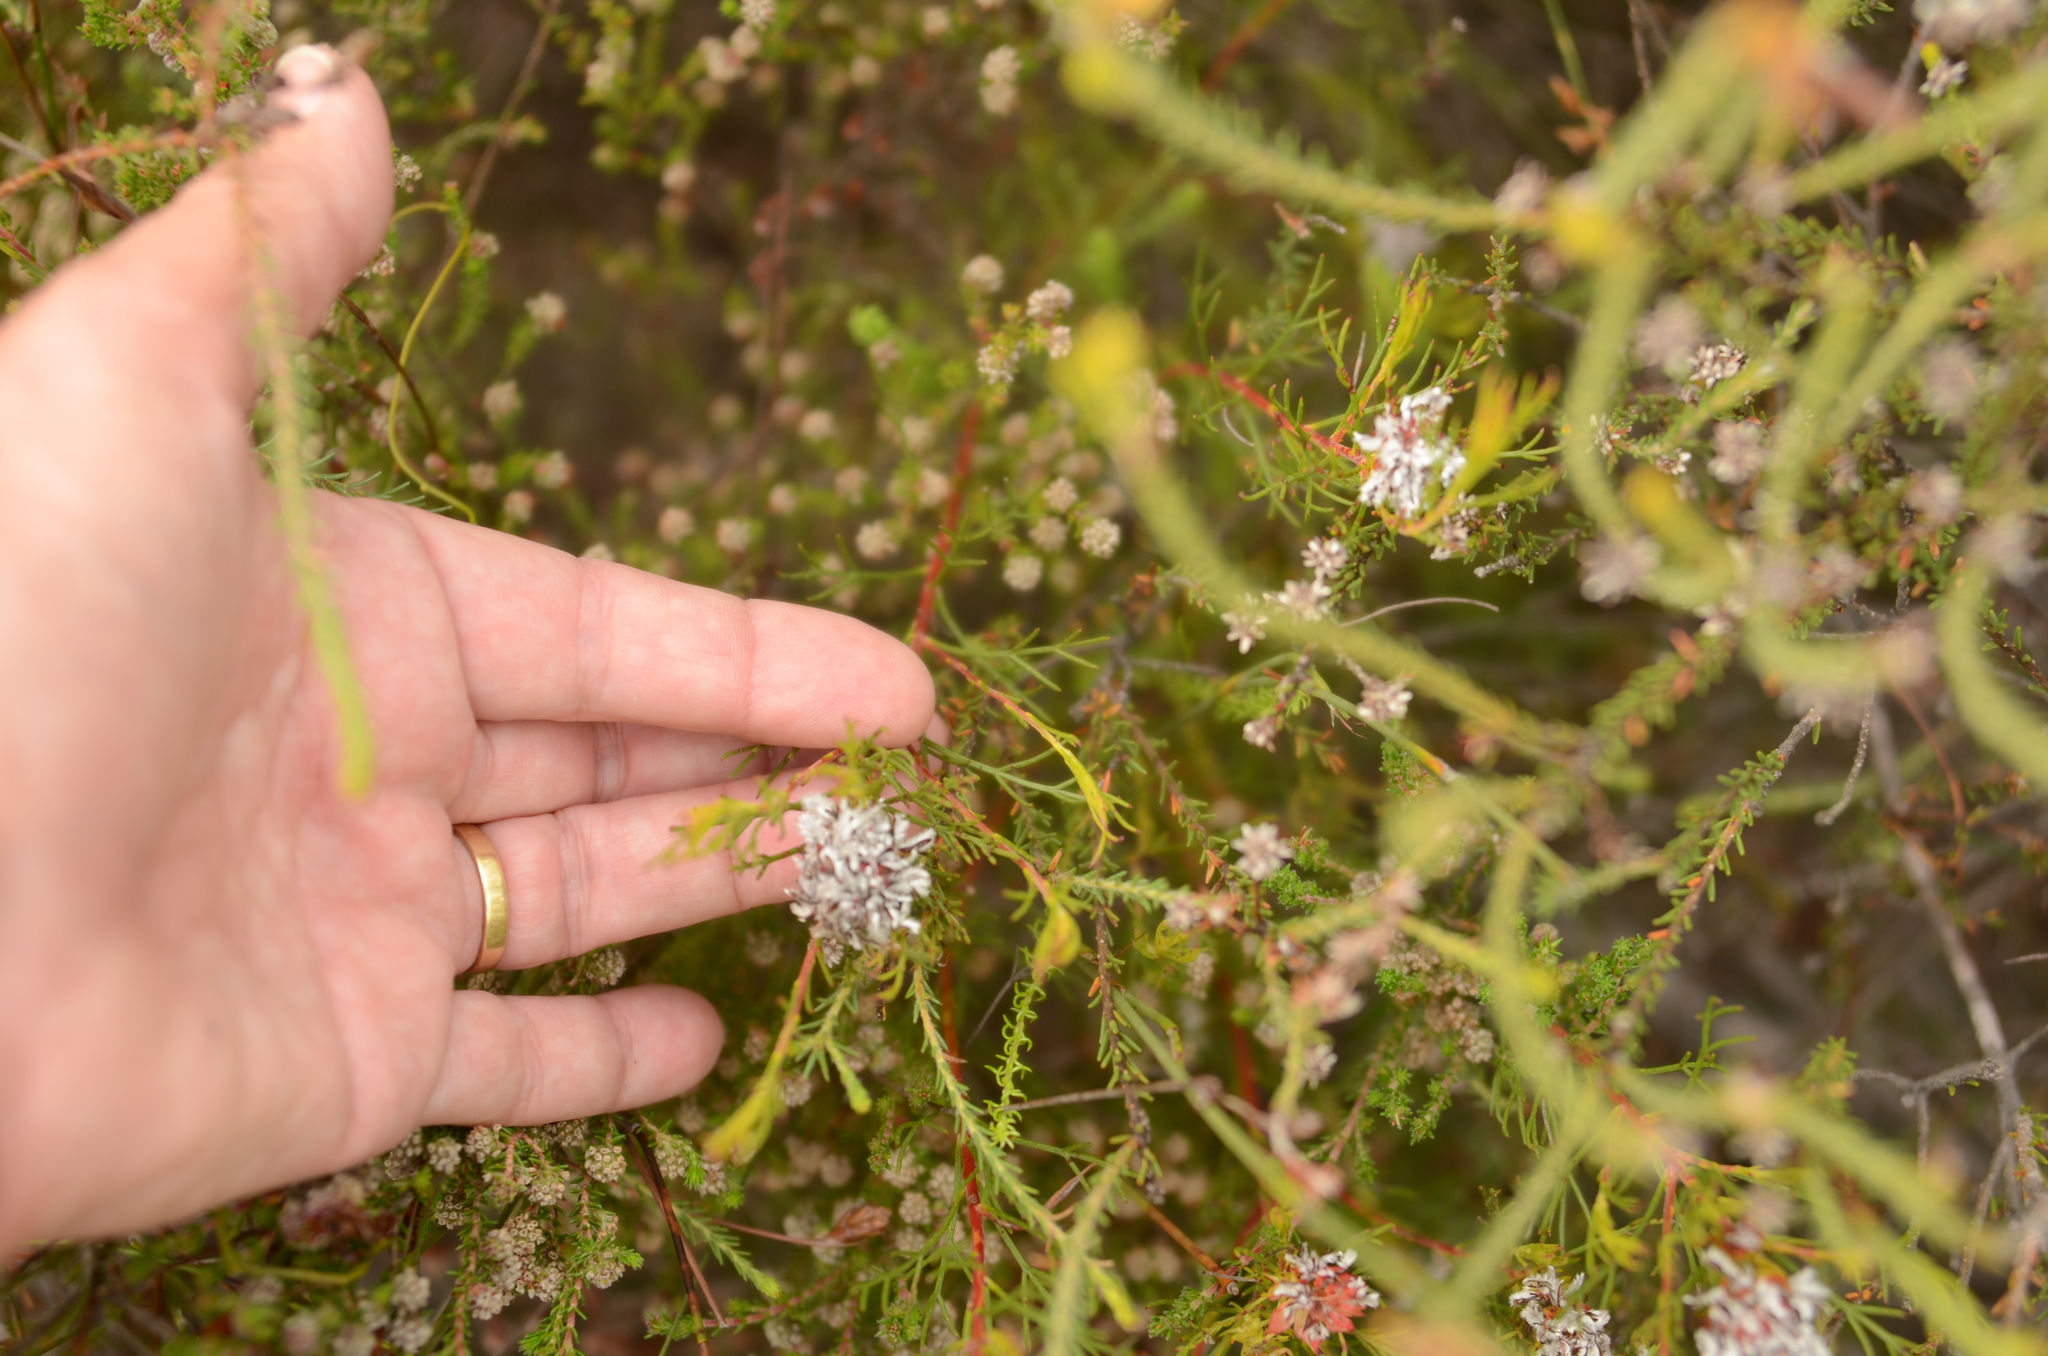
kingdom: Plantae
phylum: Tracheophyta
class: Magnoliopsida
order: Proteales
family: Proteaceae
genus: Serruria
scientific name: Serruria nervosa
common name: Fluted spiderhead
